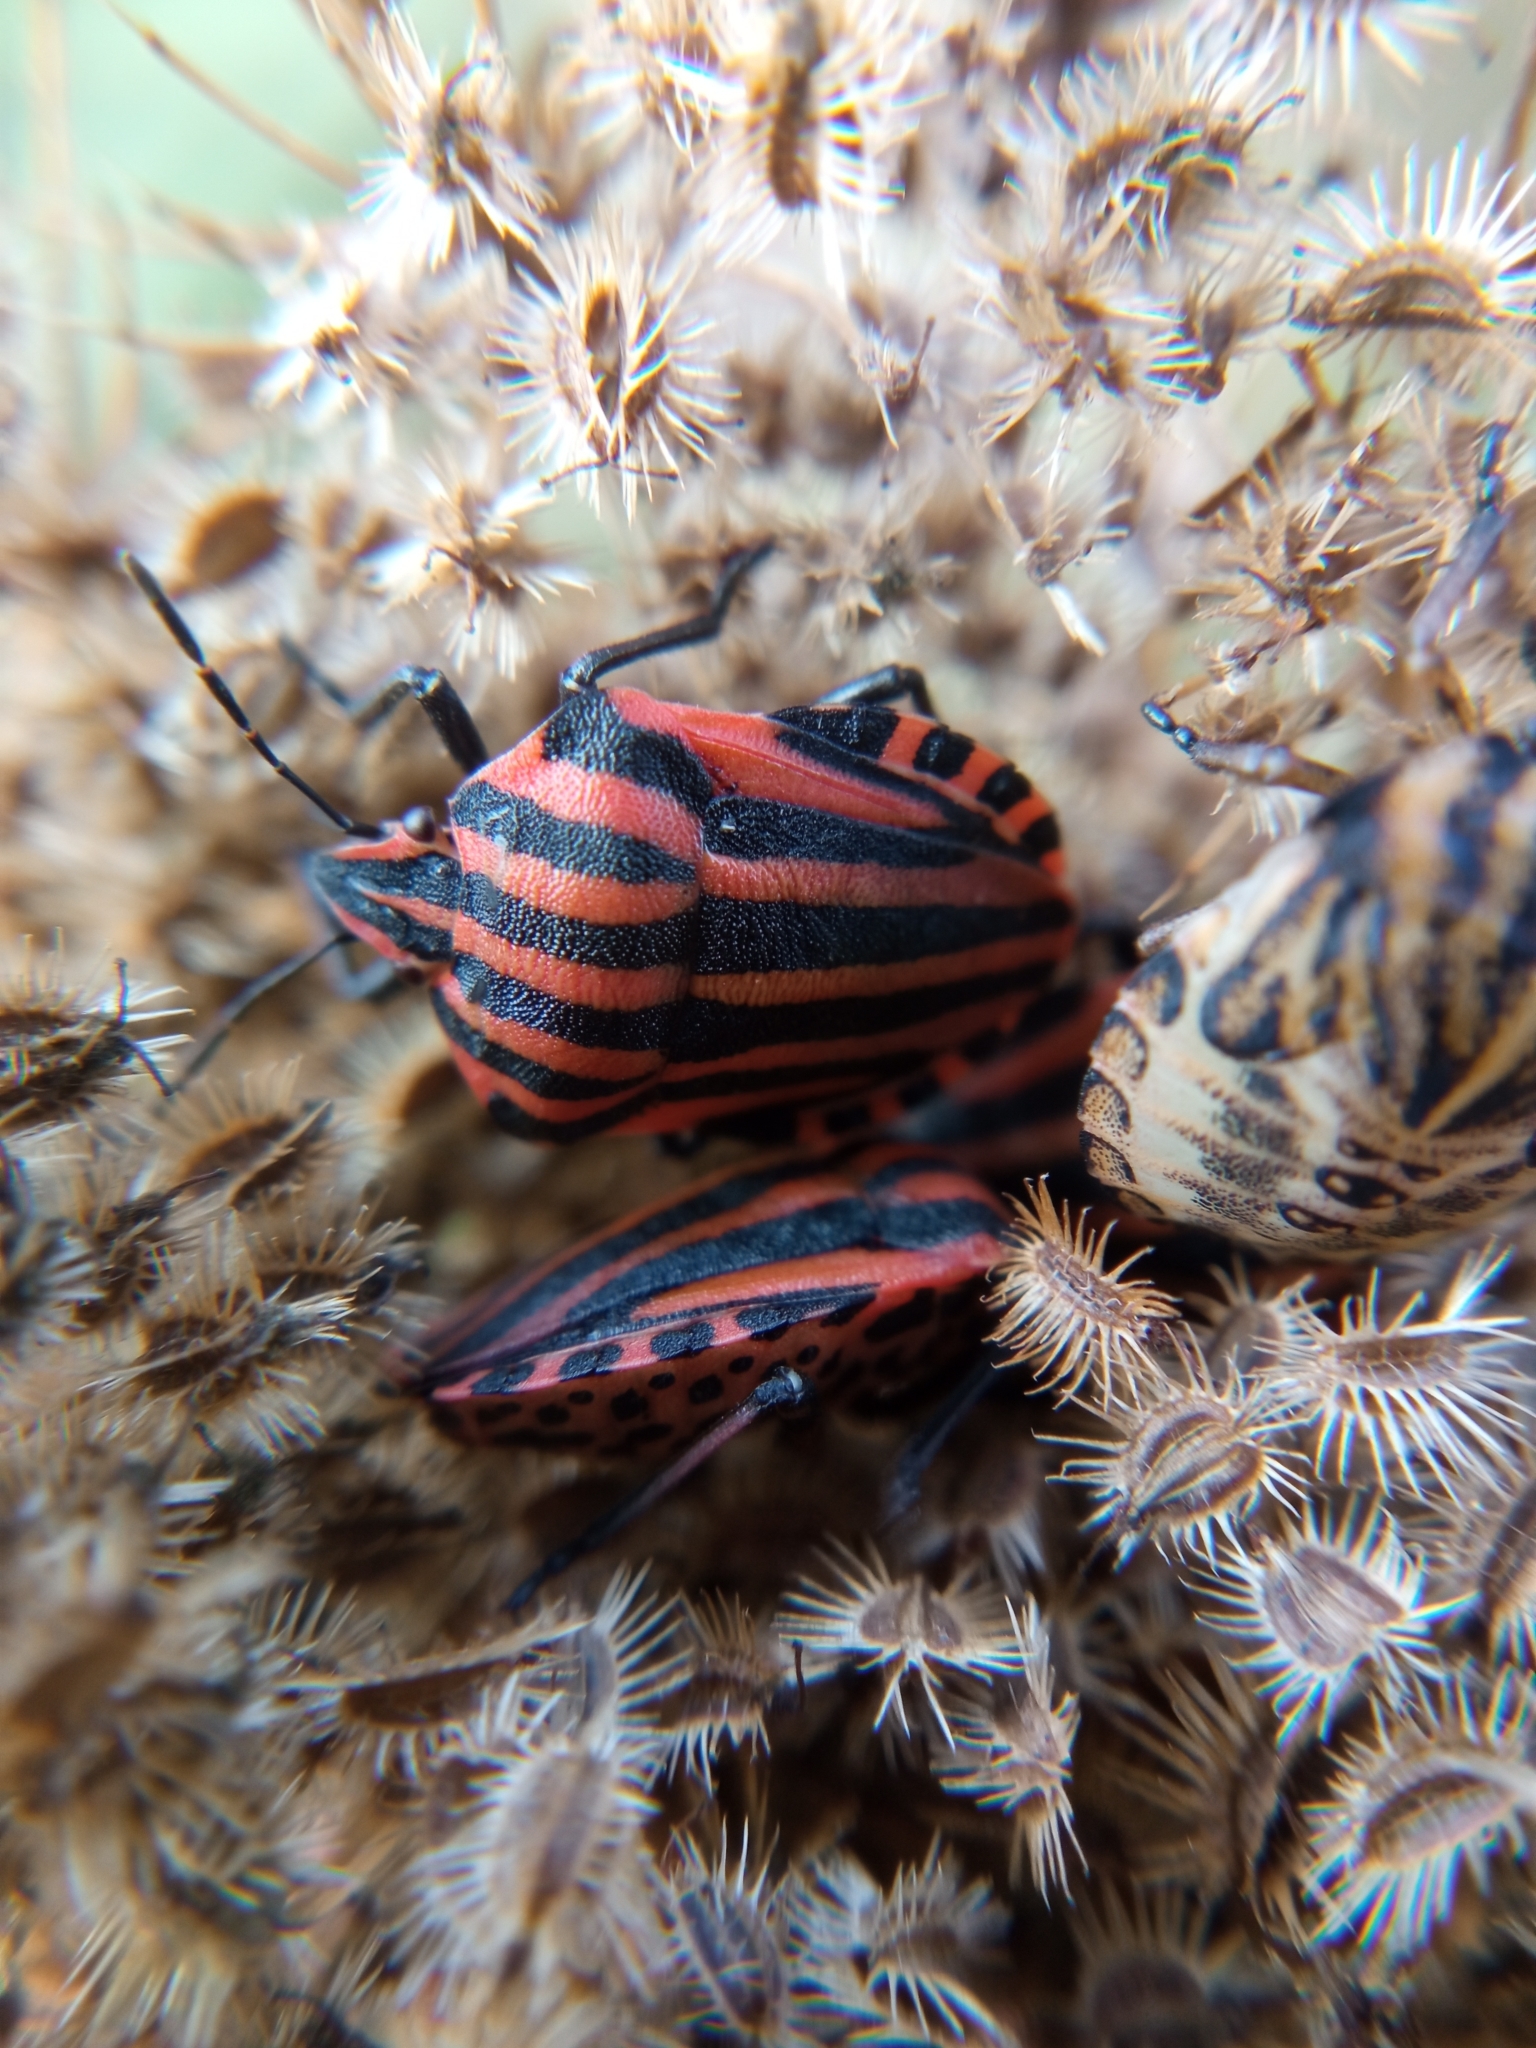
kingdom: Animalia
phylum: Arthropoda
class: Insecta
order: Hemiptera
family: Pentatomidae
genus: Graphosoma
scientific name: Graphosoma italicum
